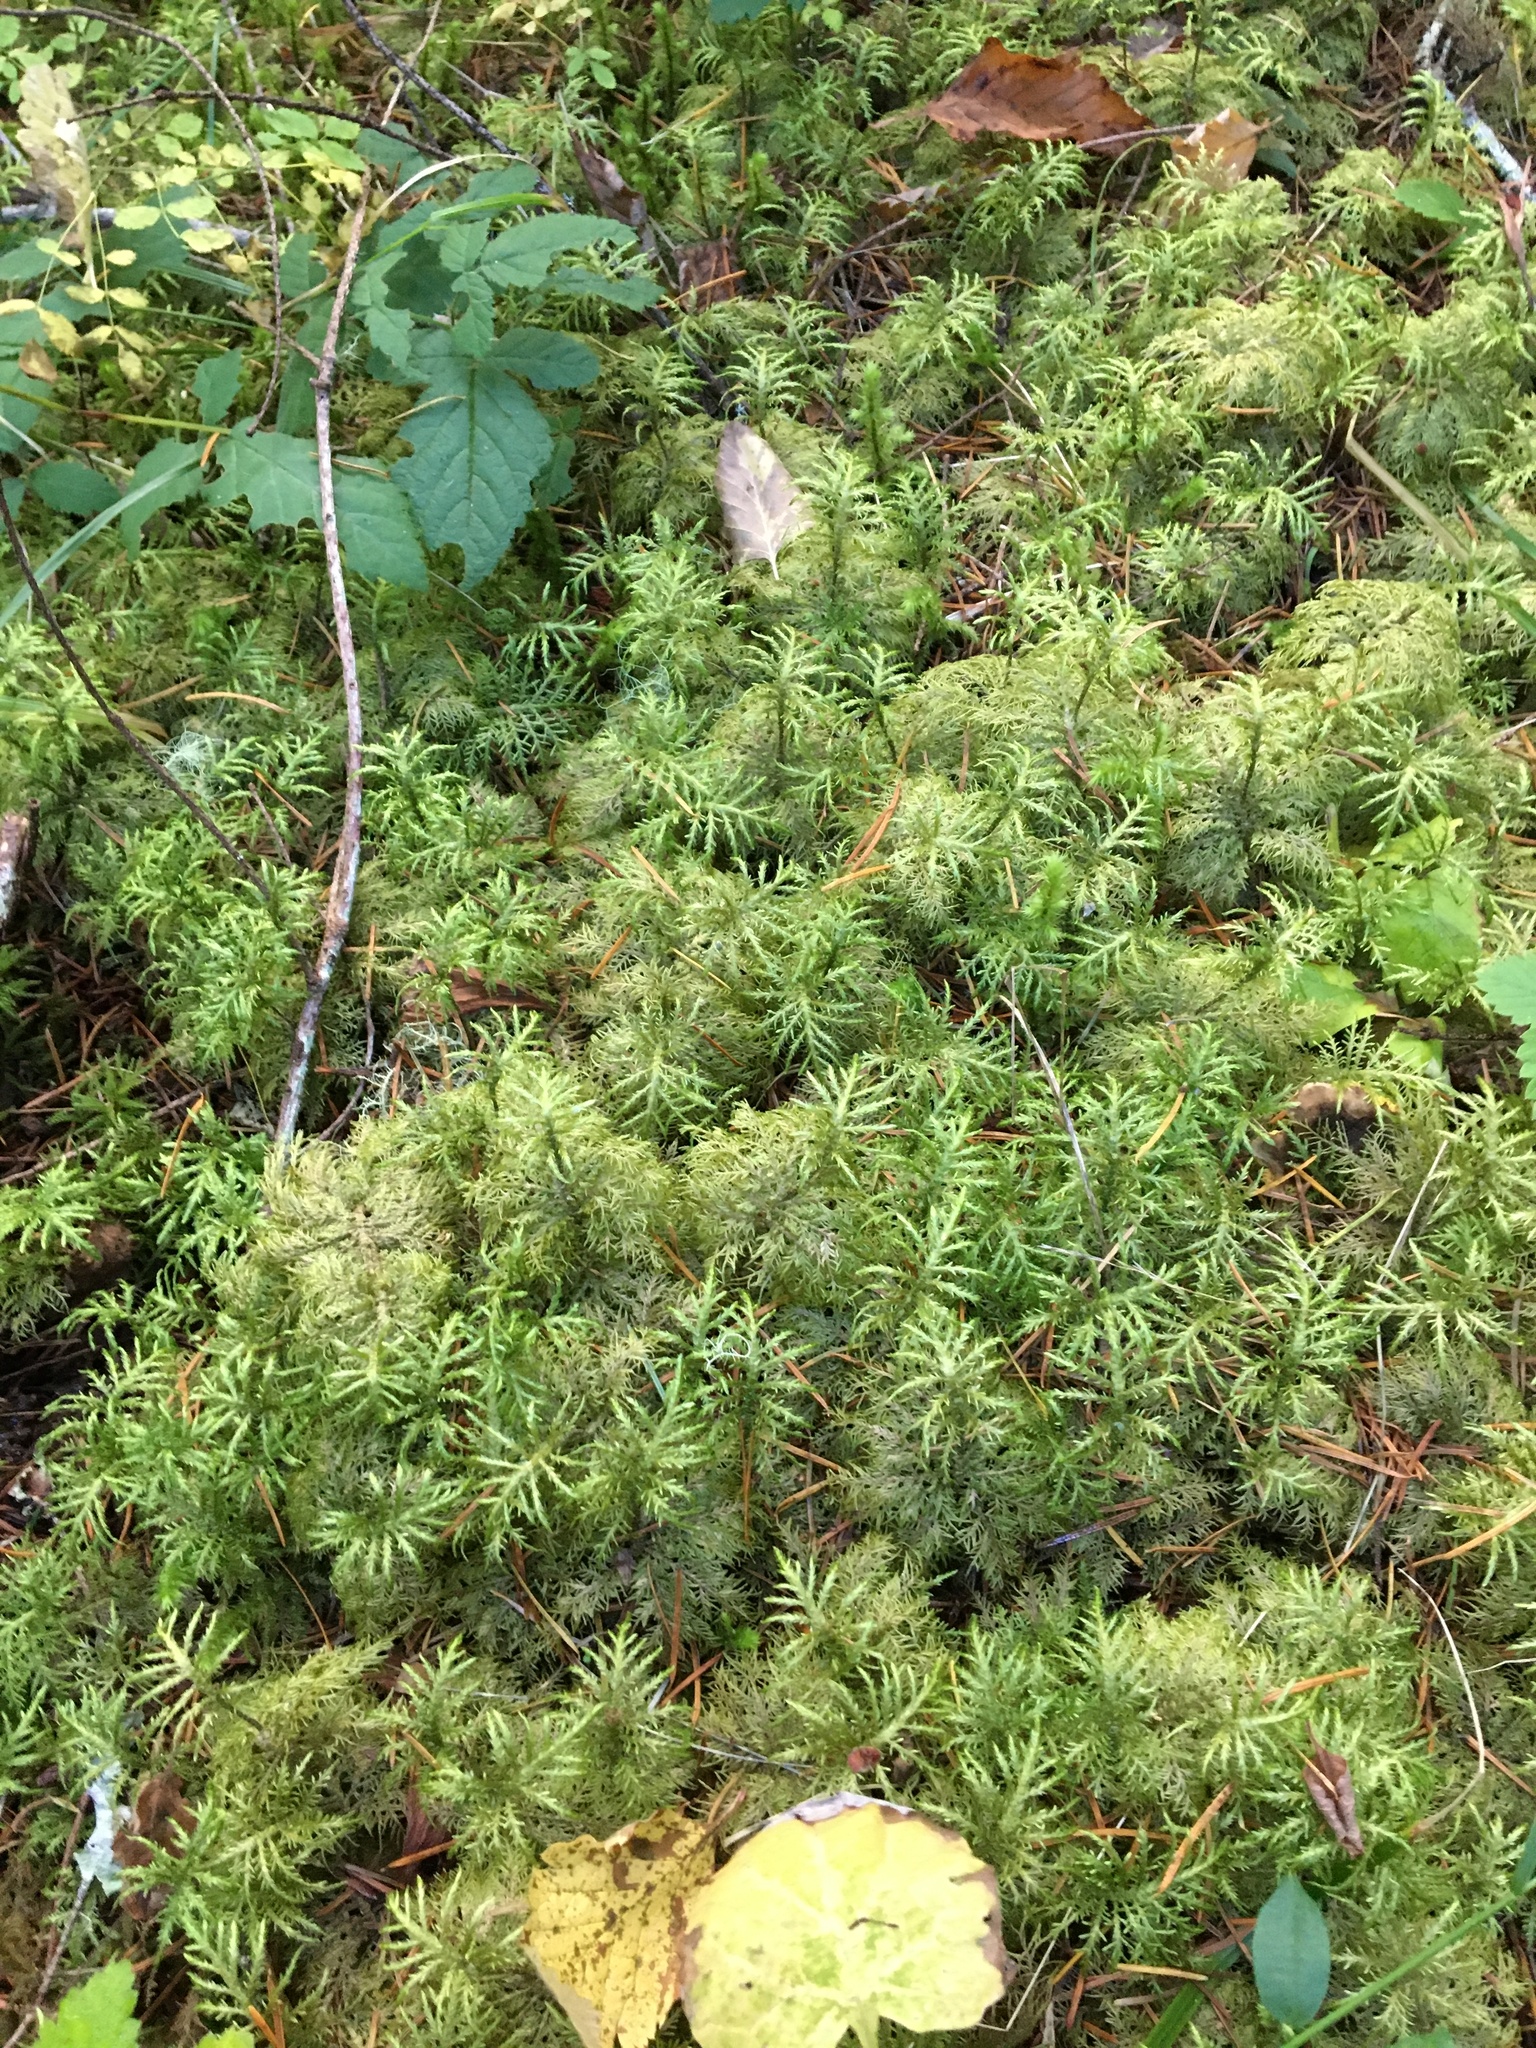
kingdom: Plantae
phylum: Bryophyta
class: Bryopsida
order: Hypnales
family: Hylocomiaceae
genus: Hylocomium
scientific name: Hylocomium splendens
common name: Stairstep moss
